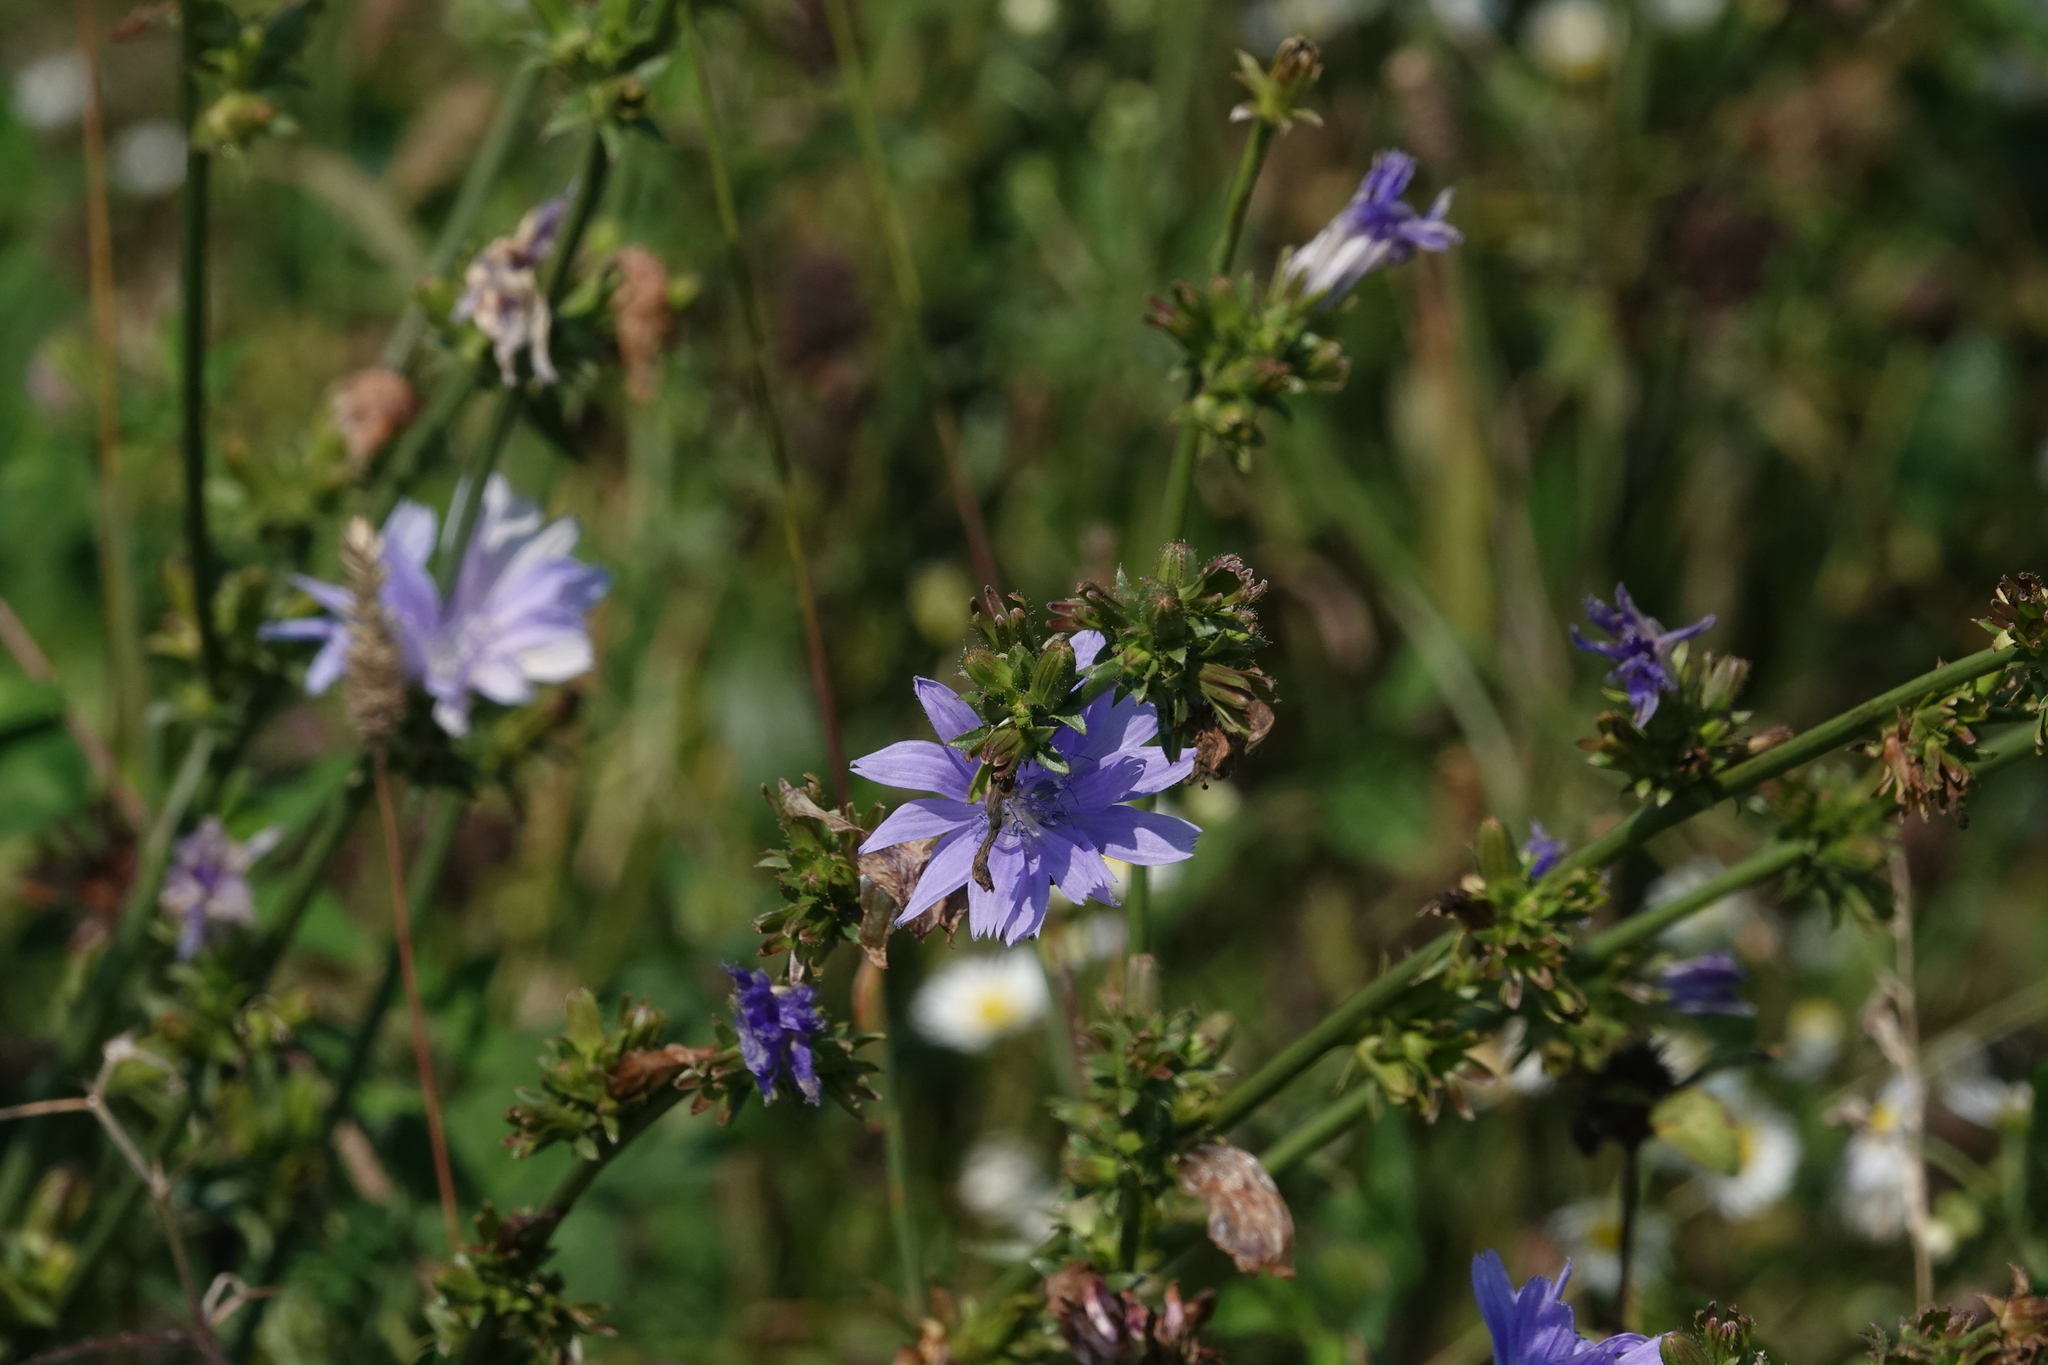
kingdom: Plantae
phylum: Tracheophyta
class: Magnoliopsida
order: Asterales
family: Asteraceae
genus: Cichorium
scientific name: Cichorium intybus
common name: Chicory
